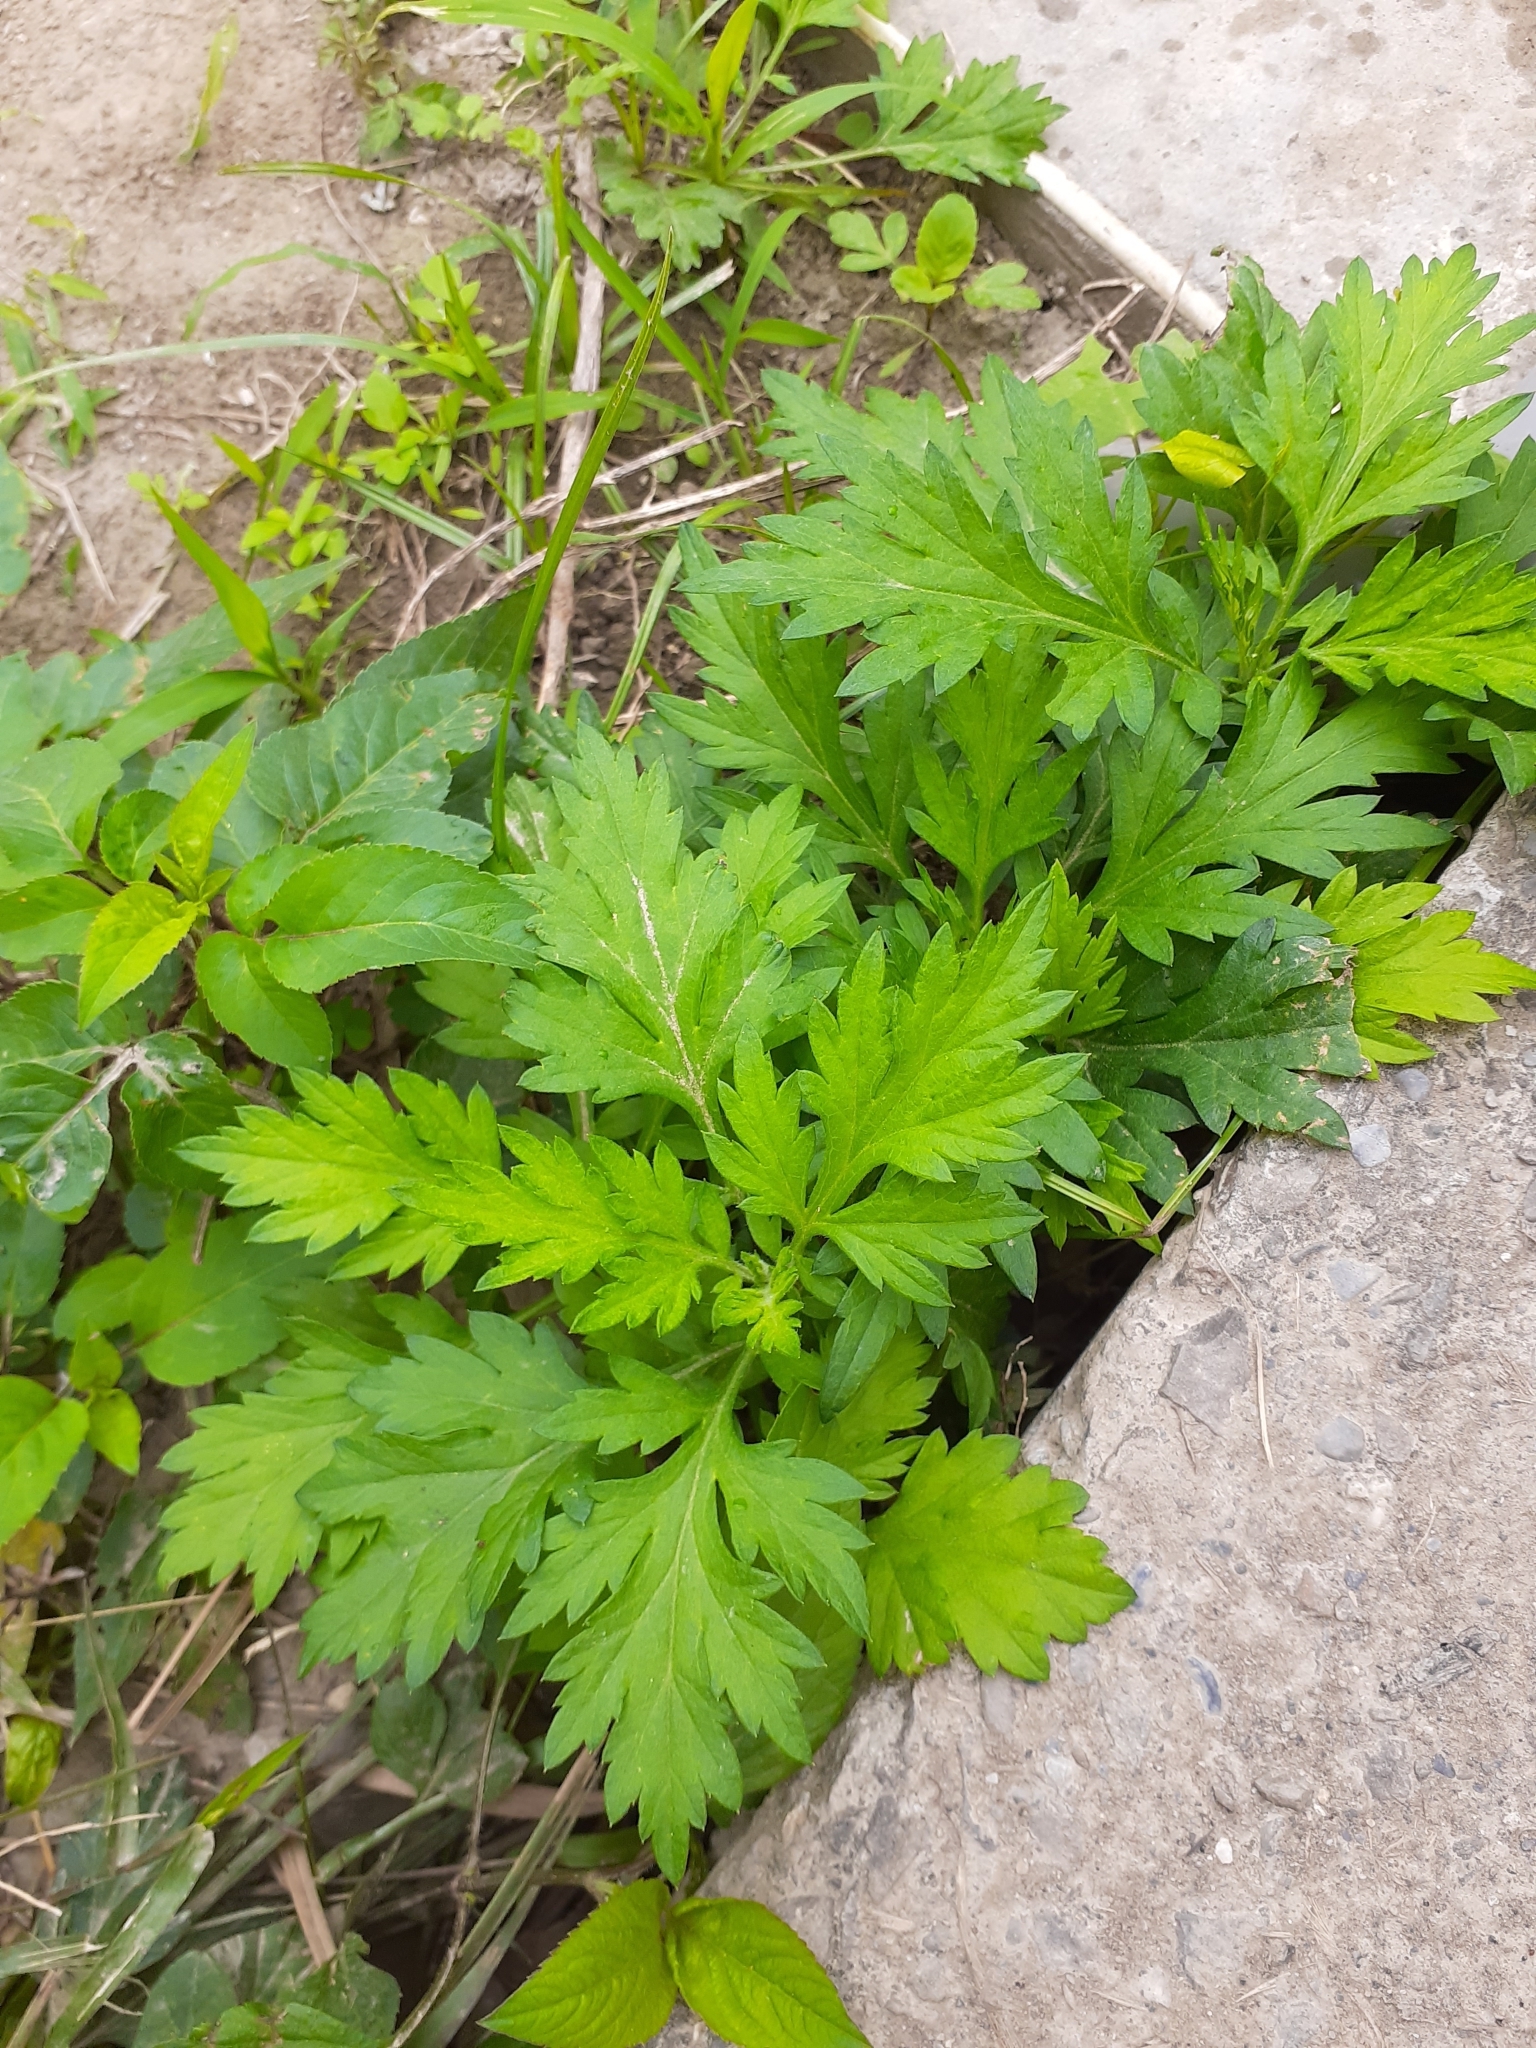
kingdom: Plantae
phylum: Tracheophyta
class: Magnoliopsida
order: Asterales
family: Asteraceae
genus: Artemisia
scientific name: Artemisia indica
